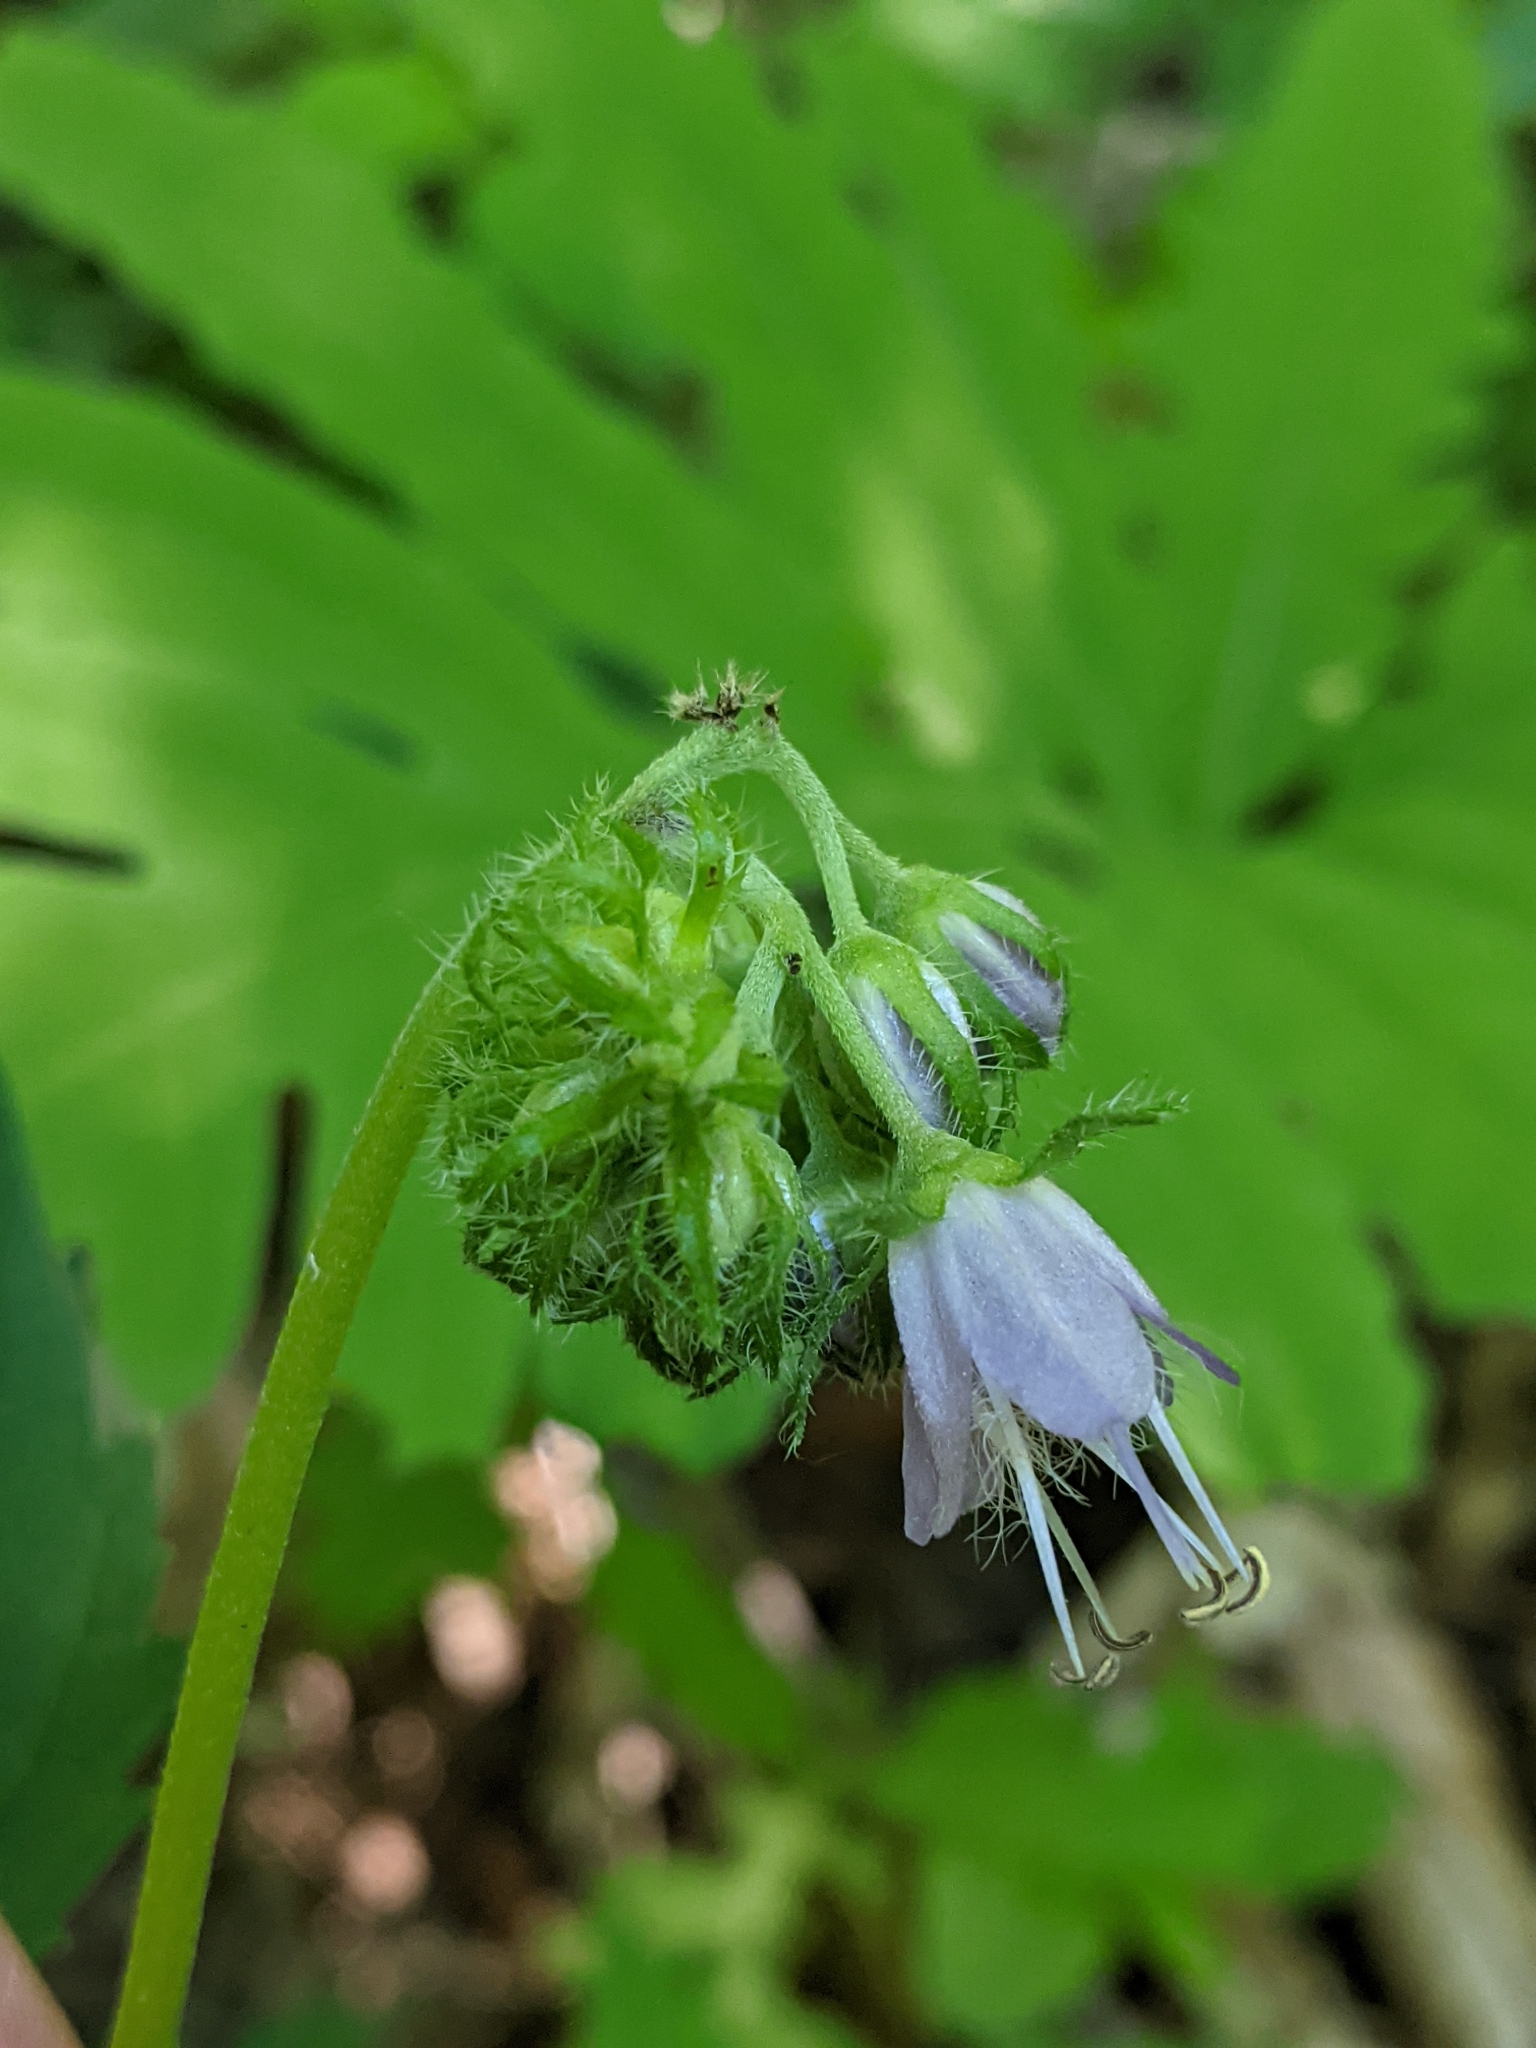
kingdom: Plantae
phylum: Tracheophyta
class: Magnoliopsida
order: Boraginales
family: Hydrophyllaceae
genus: Hydrophyllum
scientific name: Hydrophyllum virginianum
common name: Virginia waterleaf
